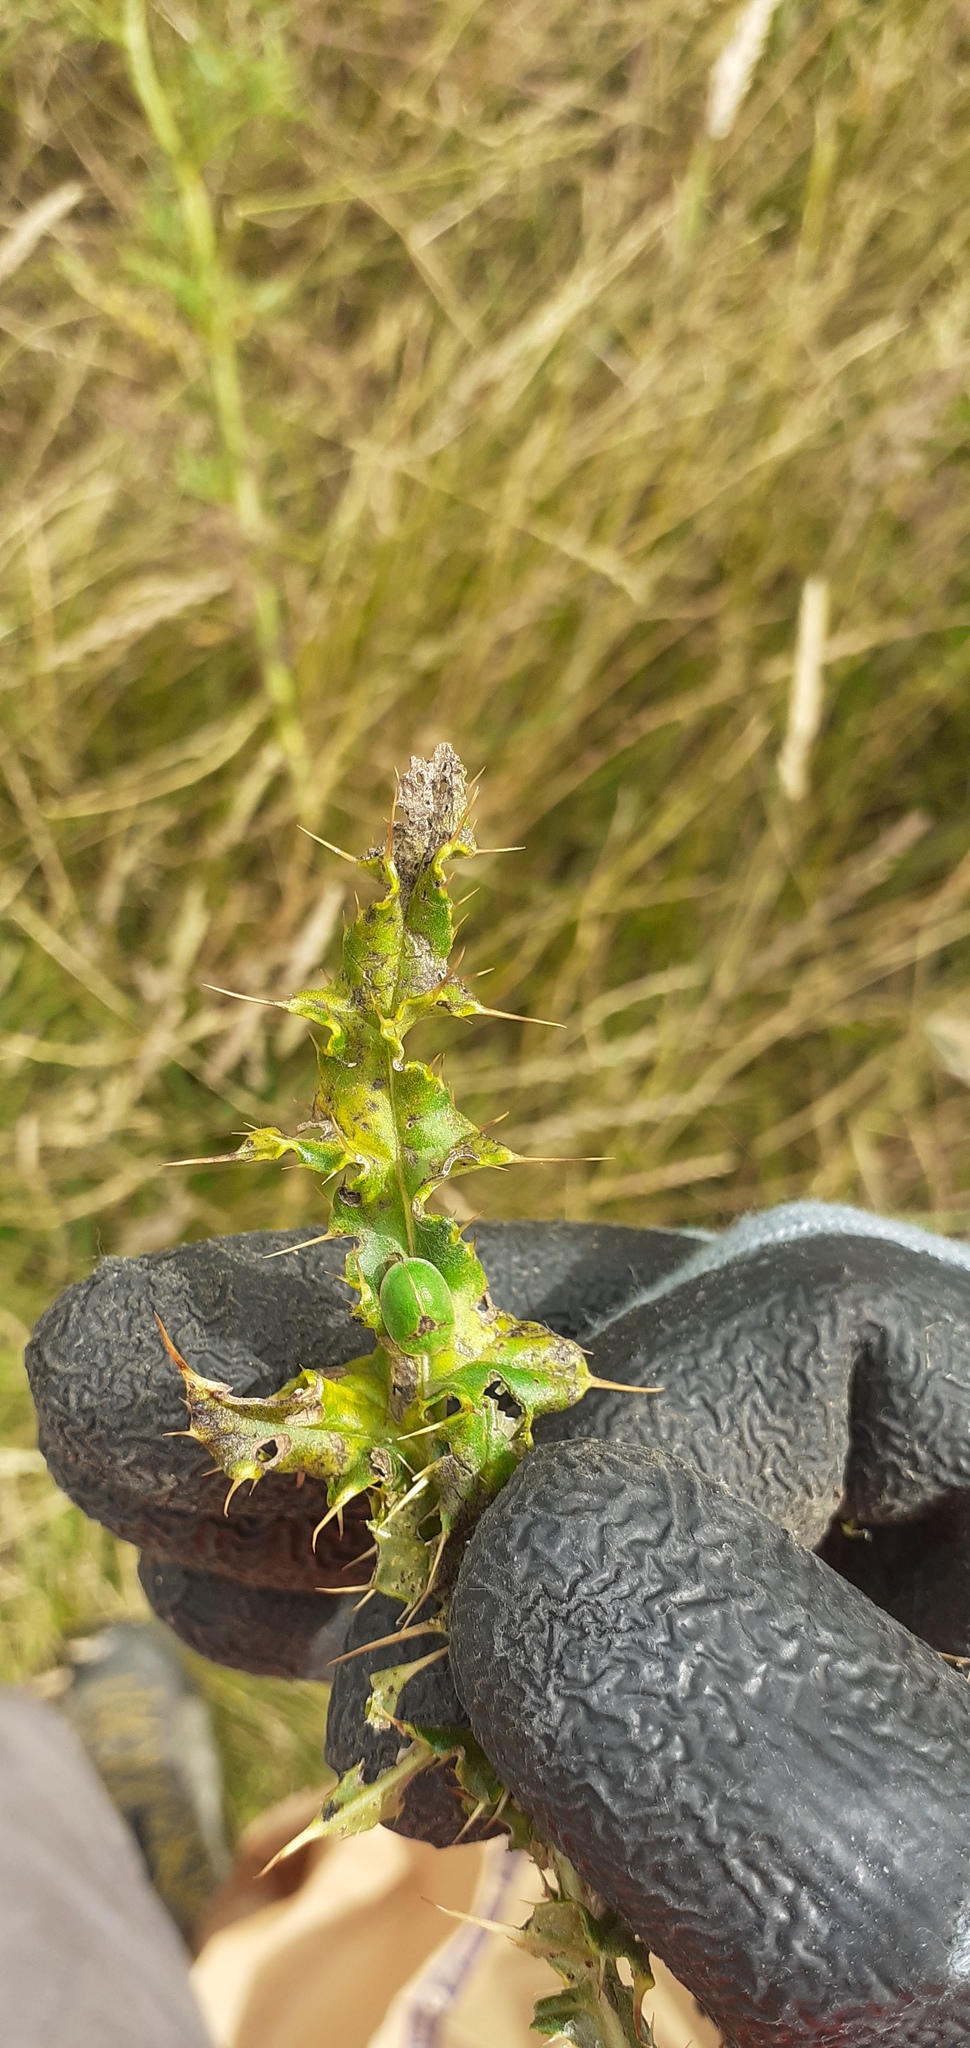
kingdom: Animalia
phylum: Arthropoda
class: Insecta
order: Coleoptera
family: Chrysomelidae
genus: Cassida
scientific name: Cassida rubiginosa
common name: Thistle tortoise beetle
